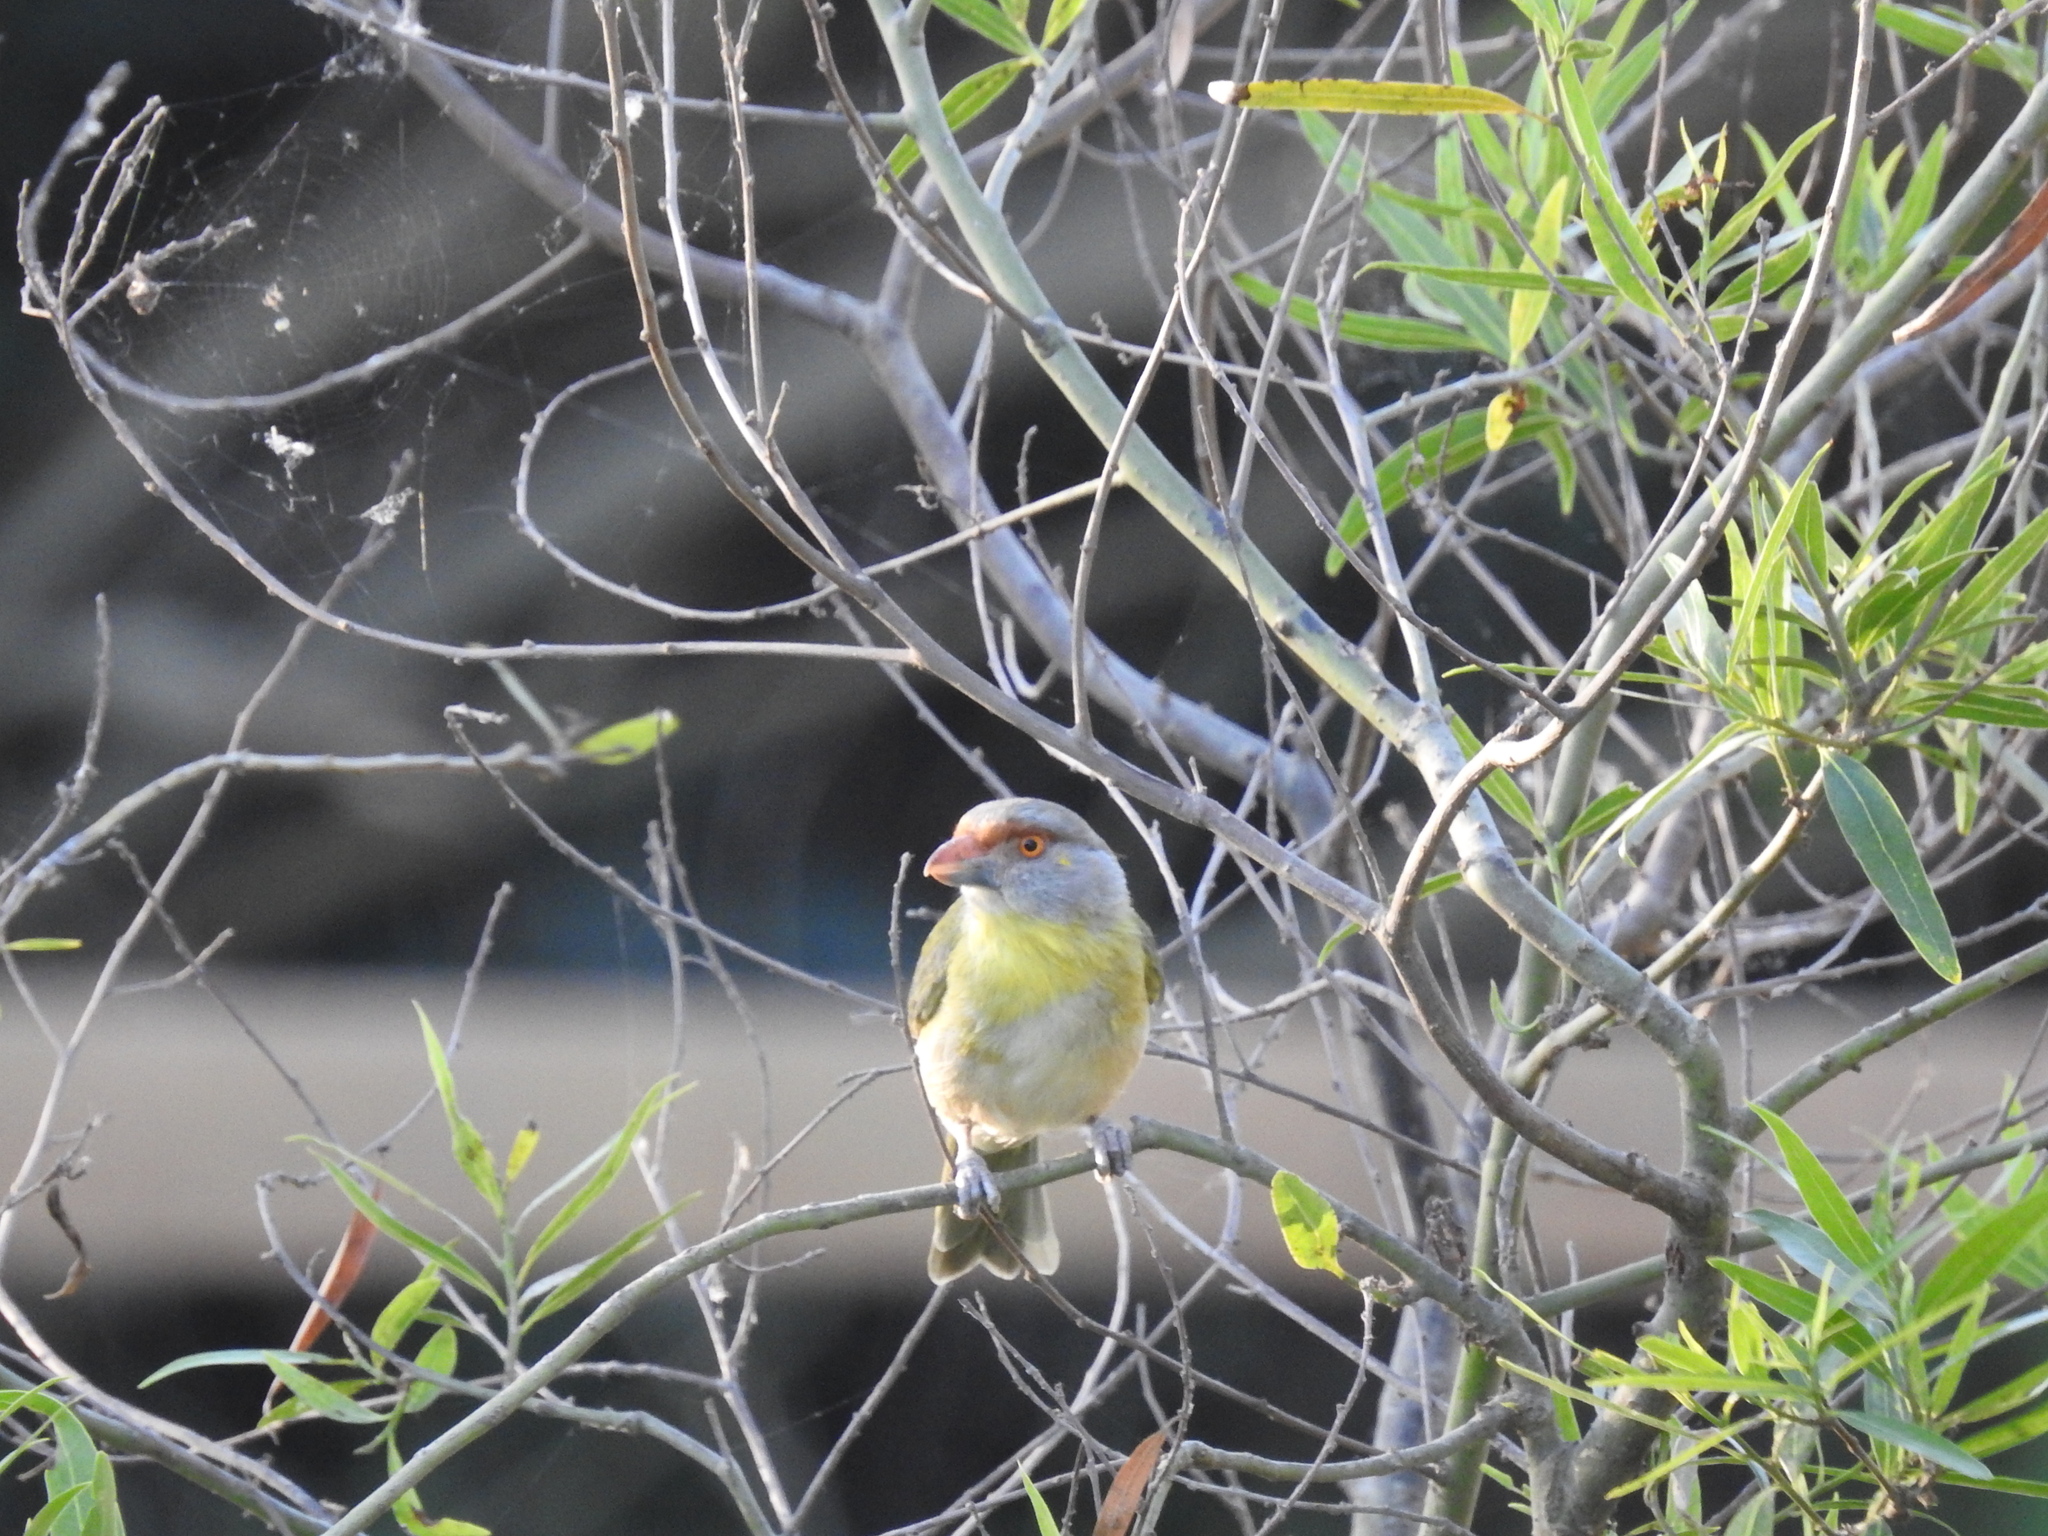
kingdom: Animalia
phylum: Chordata
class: Aves
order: Passeriformes
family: Vireonidae
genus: Cyclarhis
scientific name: Cyclarhis gujanensis
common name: Rufous-browed peppershrike
